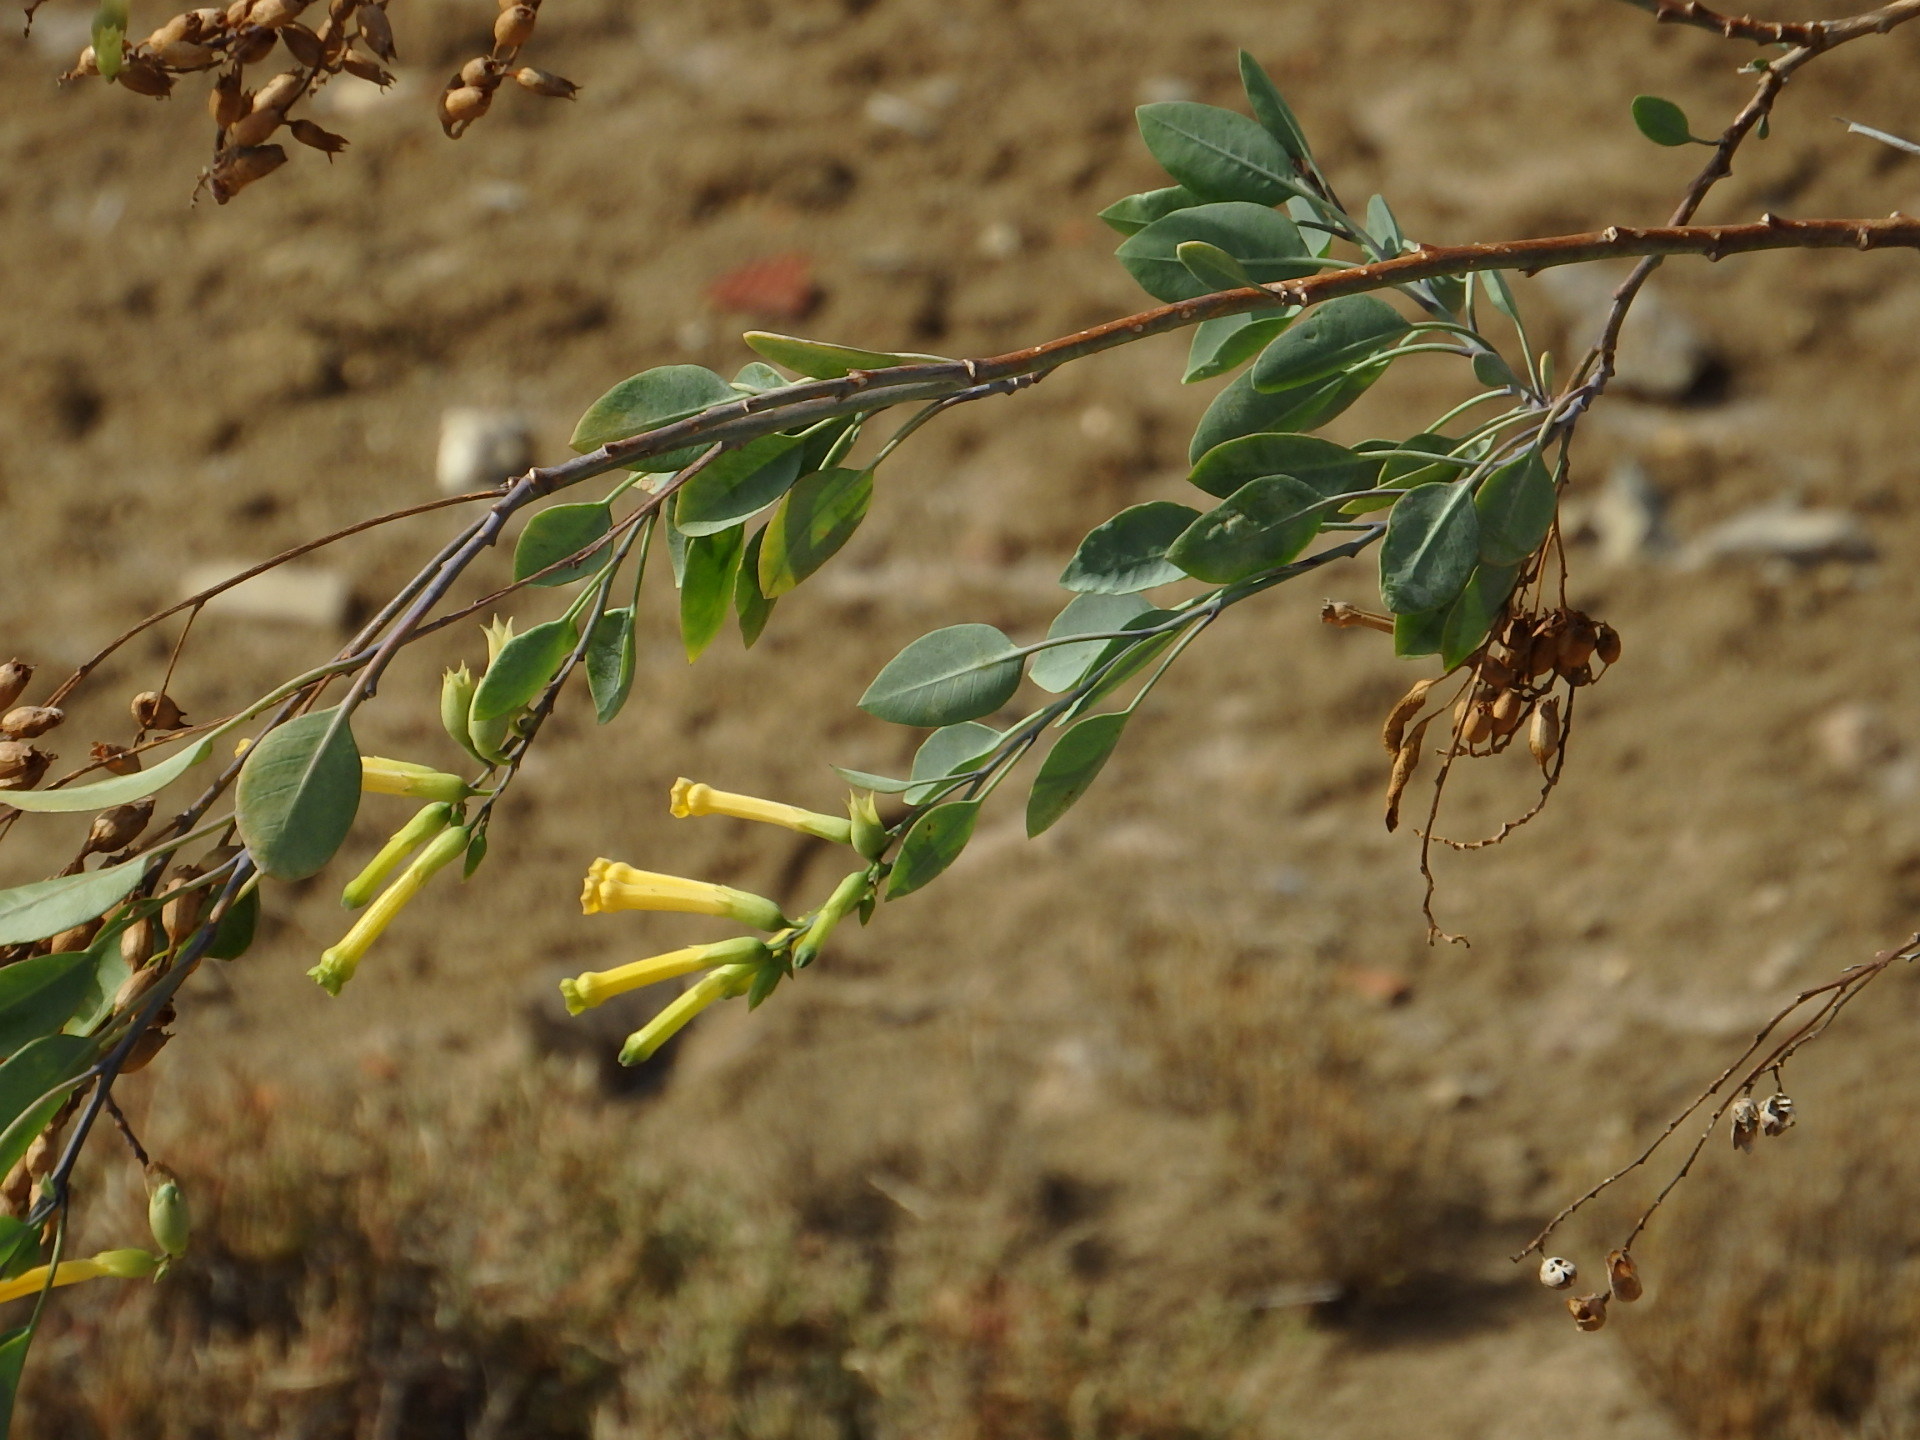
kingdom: Plantae
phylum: Tracheophyta
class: Magnoliopsida
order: Solanales
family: Solanaceae
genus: Nicotiana
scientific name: Nicotiana glauca
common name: Tree tobacco
